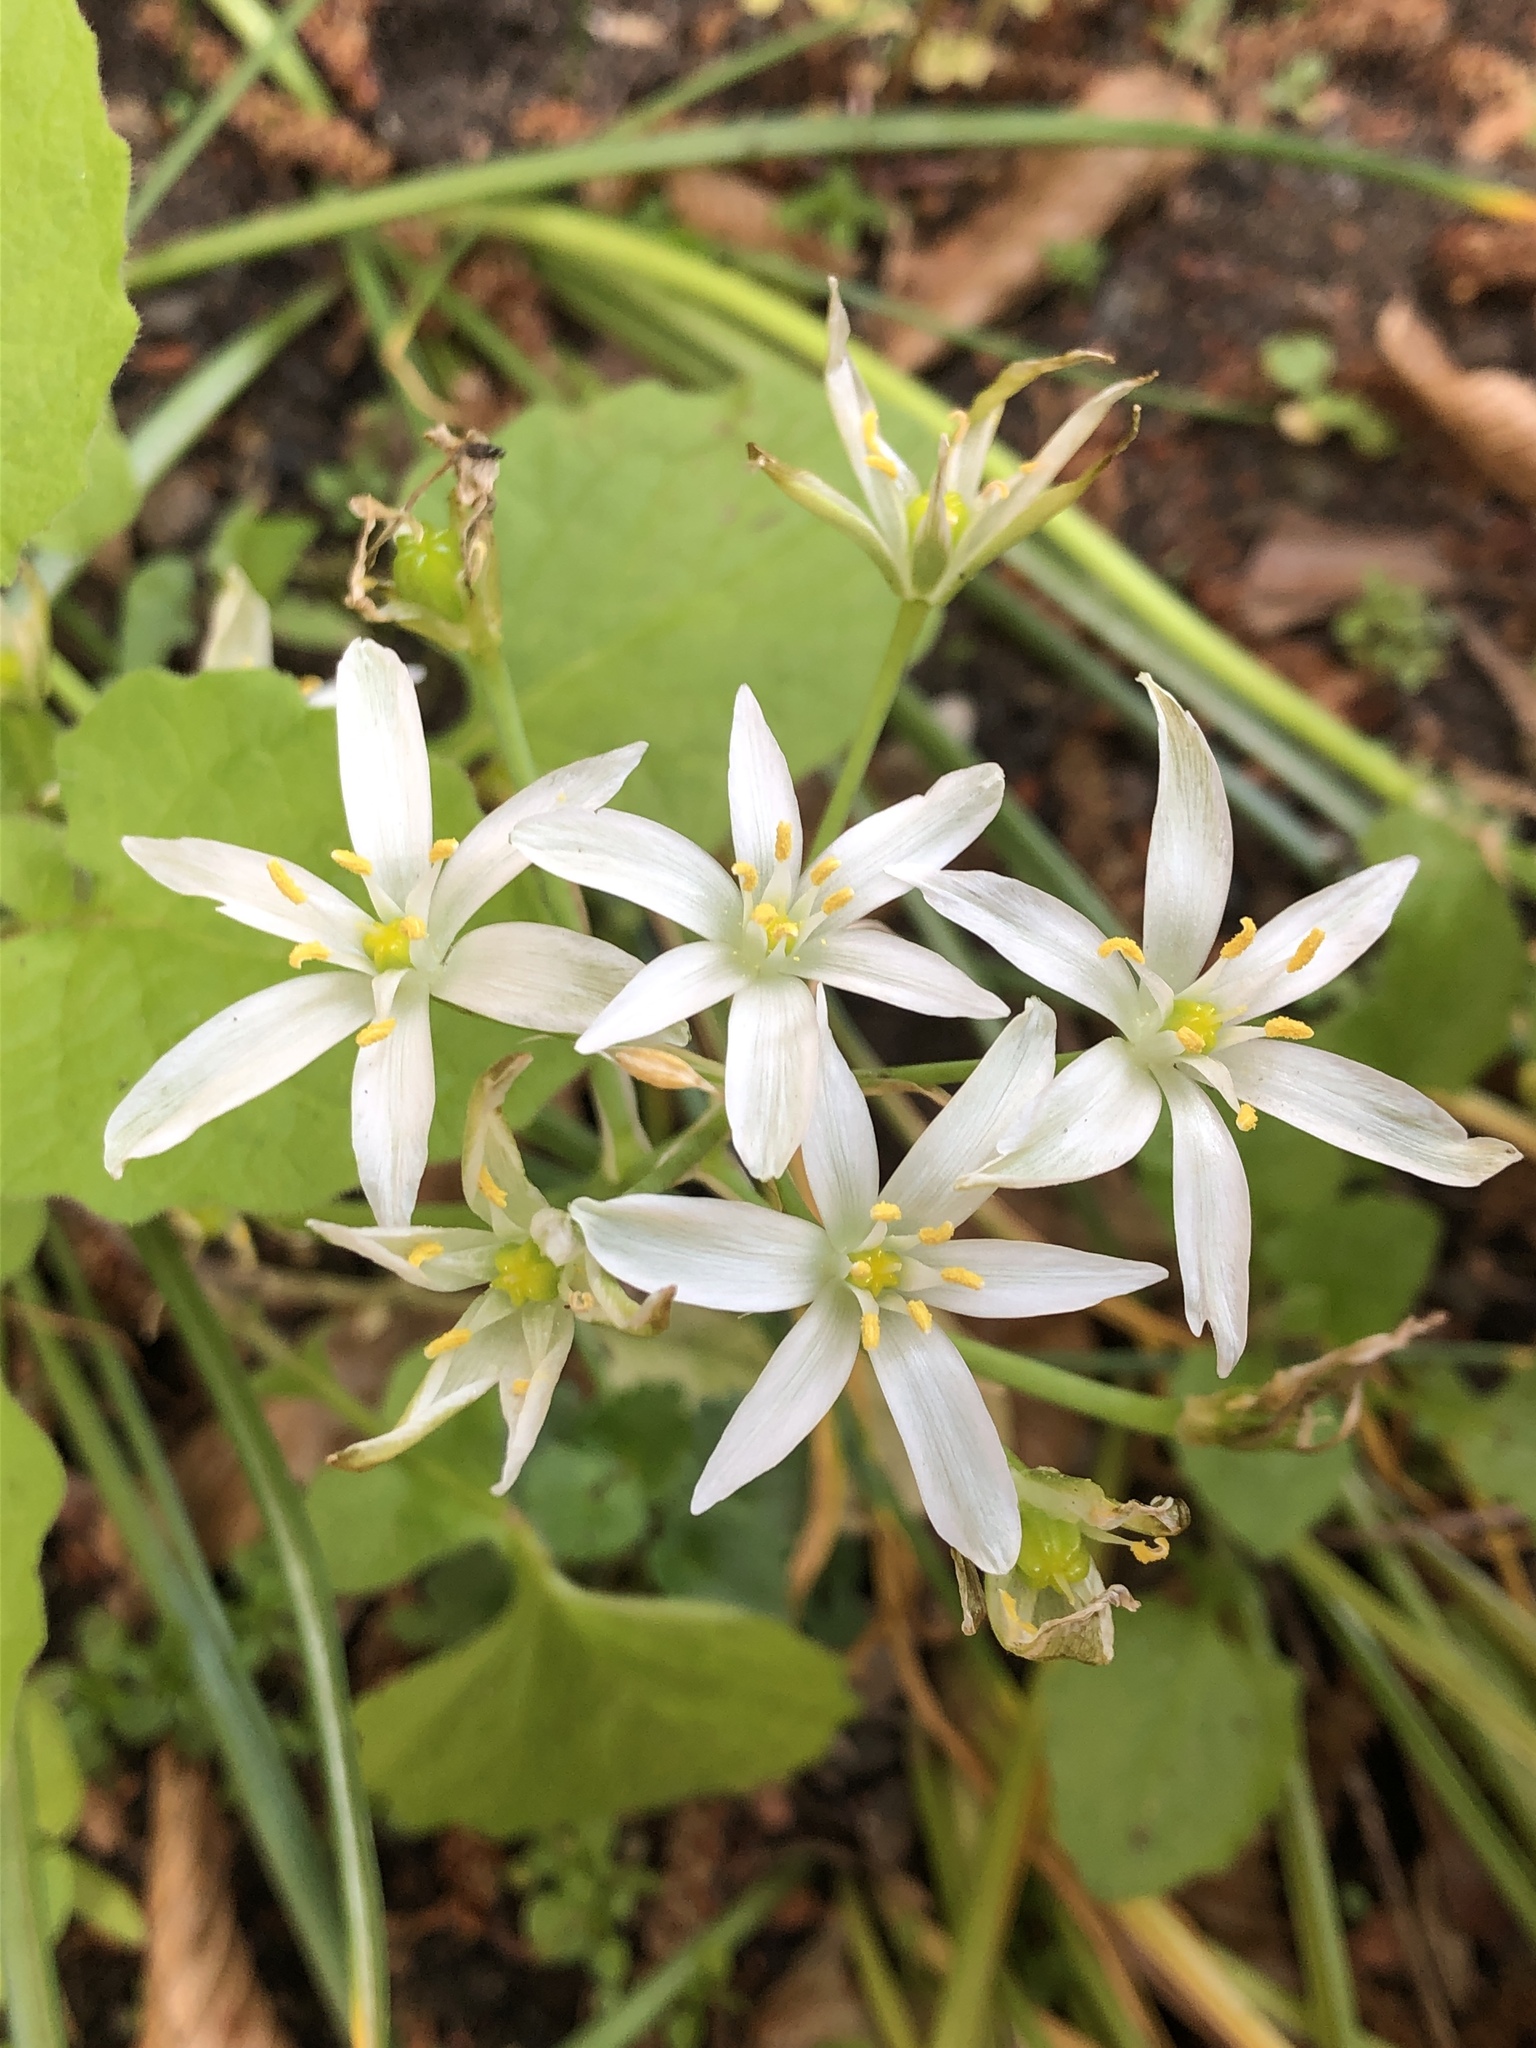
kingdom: Plantae
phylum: Tracheophyta
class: Liliopsida
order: Asparagales
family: Asparagaceae
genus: Ornithogalum
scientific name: Ornithogalum umbellatum
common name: Garden star-of-bethlehem
